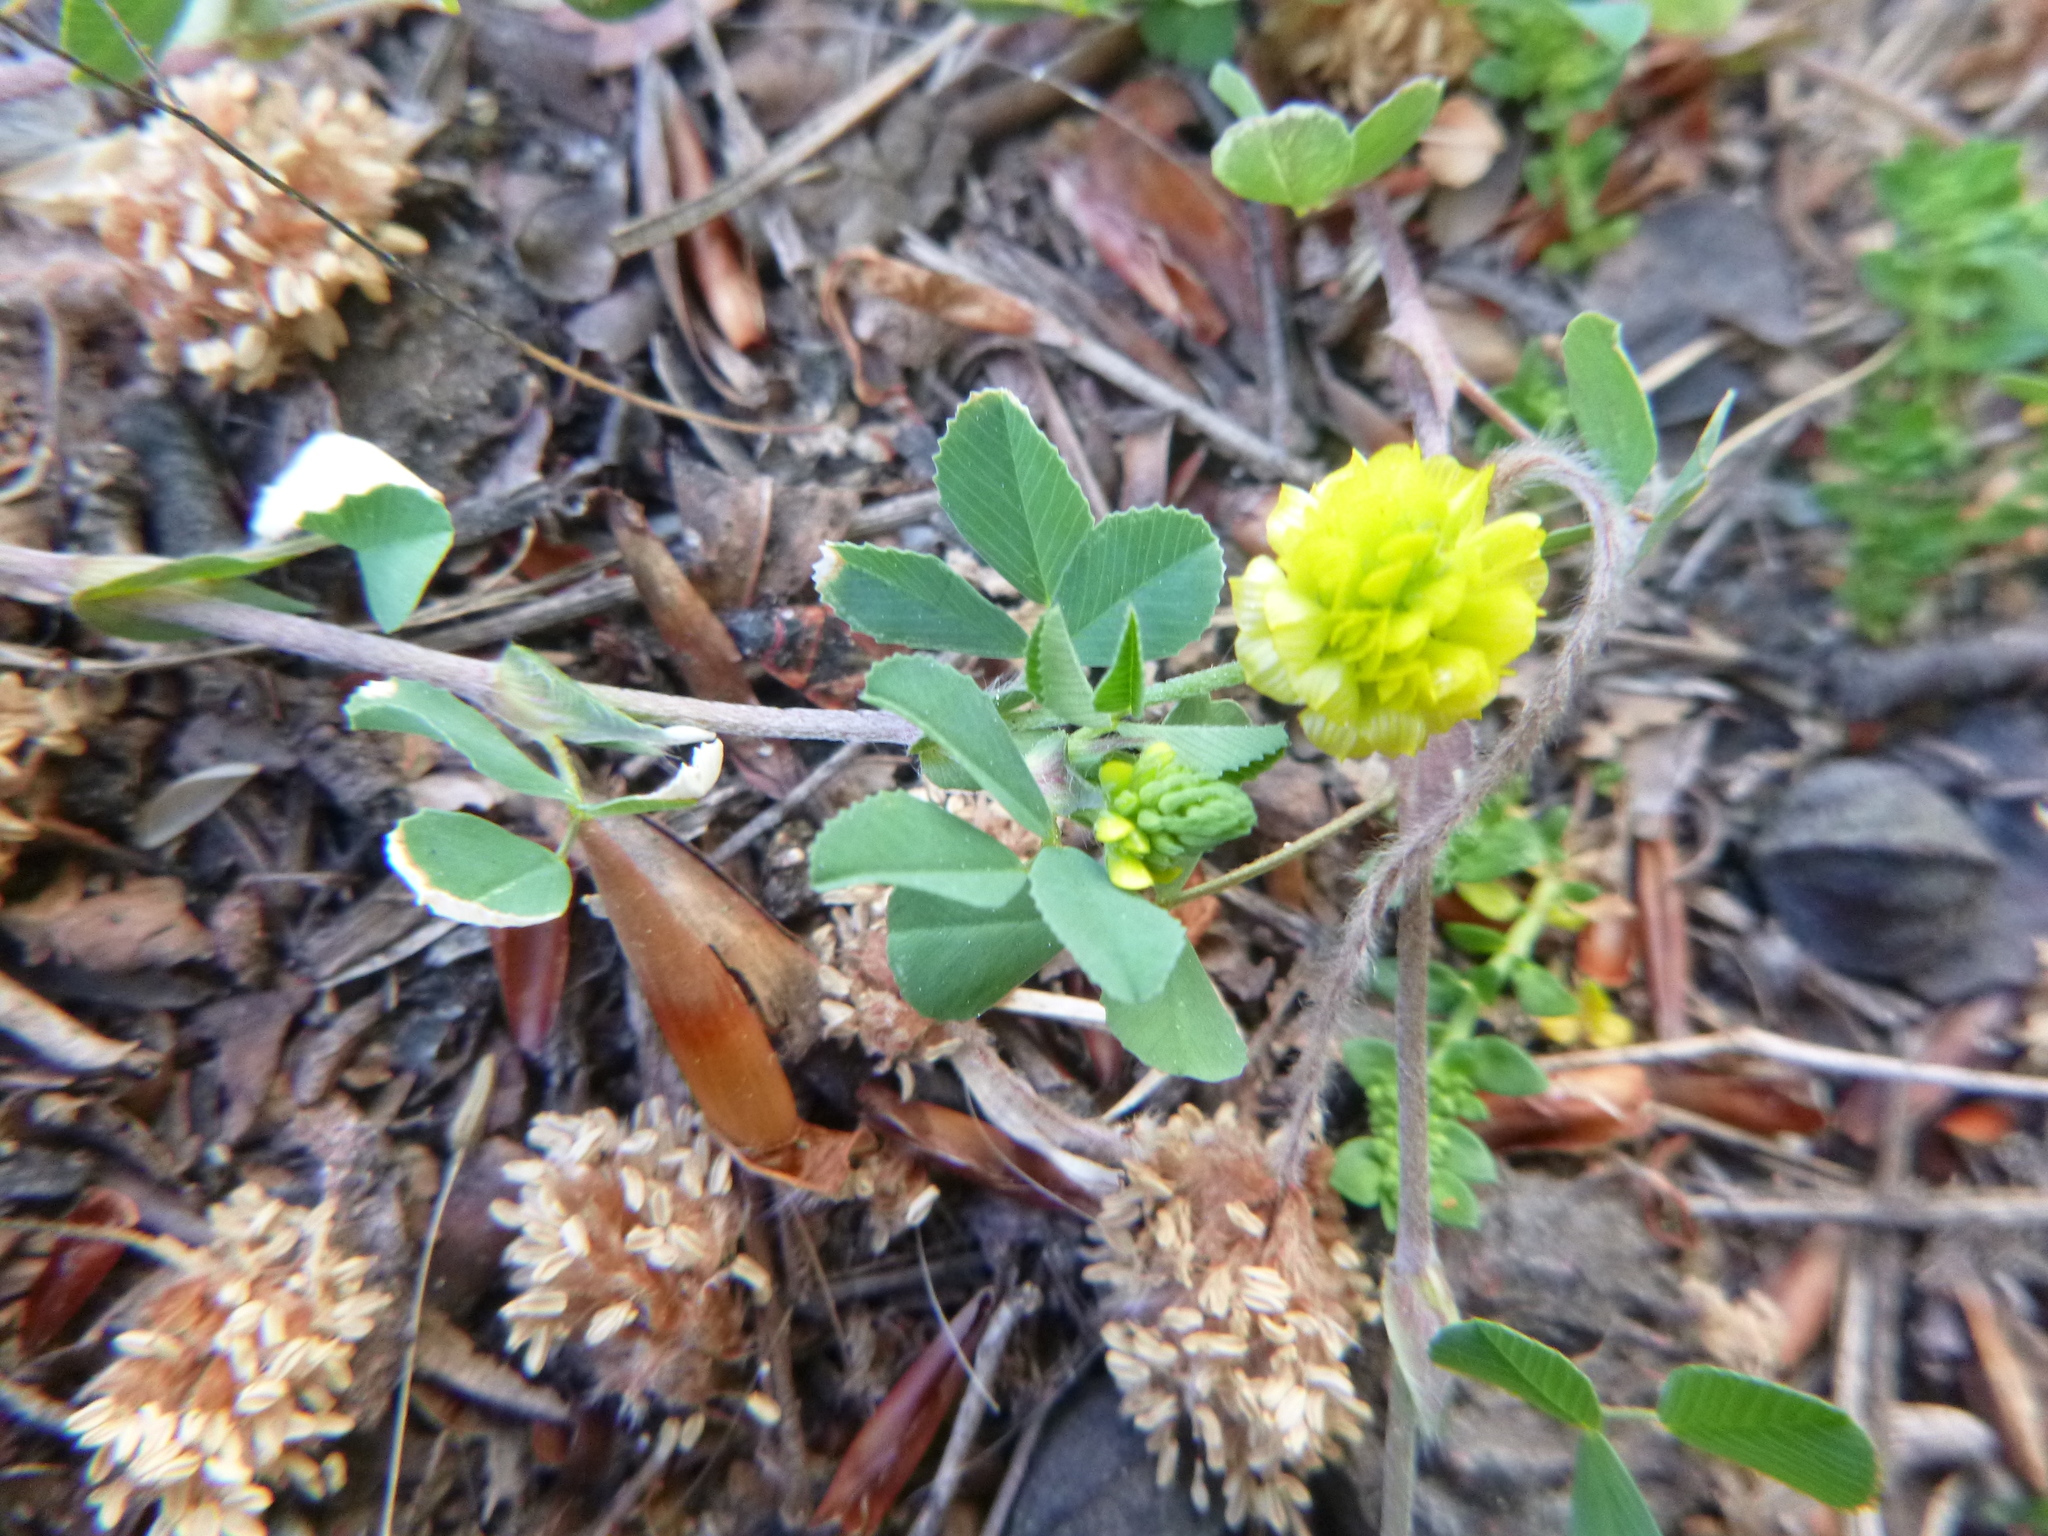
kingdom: Plantae
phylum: Tracheophyta
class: Magnoliopsida
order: Fabales
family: Fabaceae
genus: Trifolium
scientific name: Trifolium campestre
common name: Field clover
